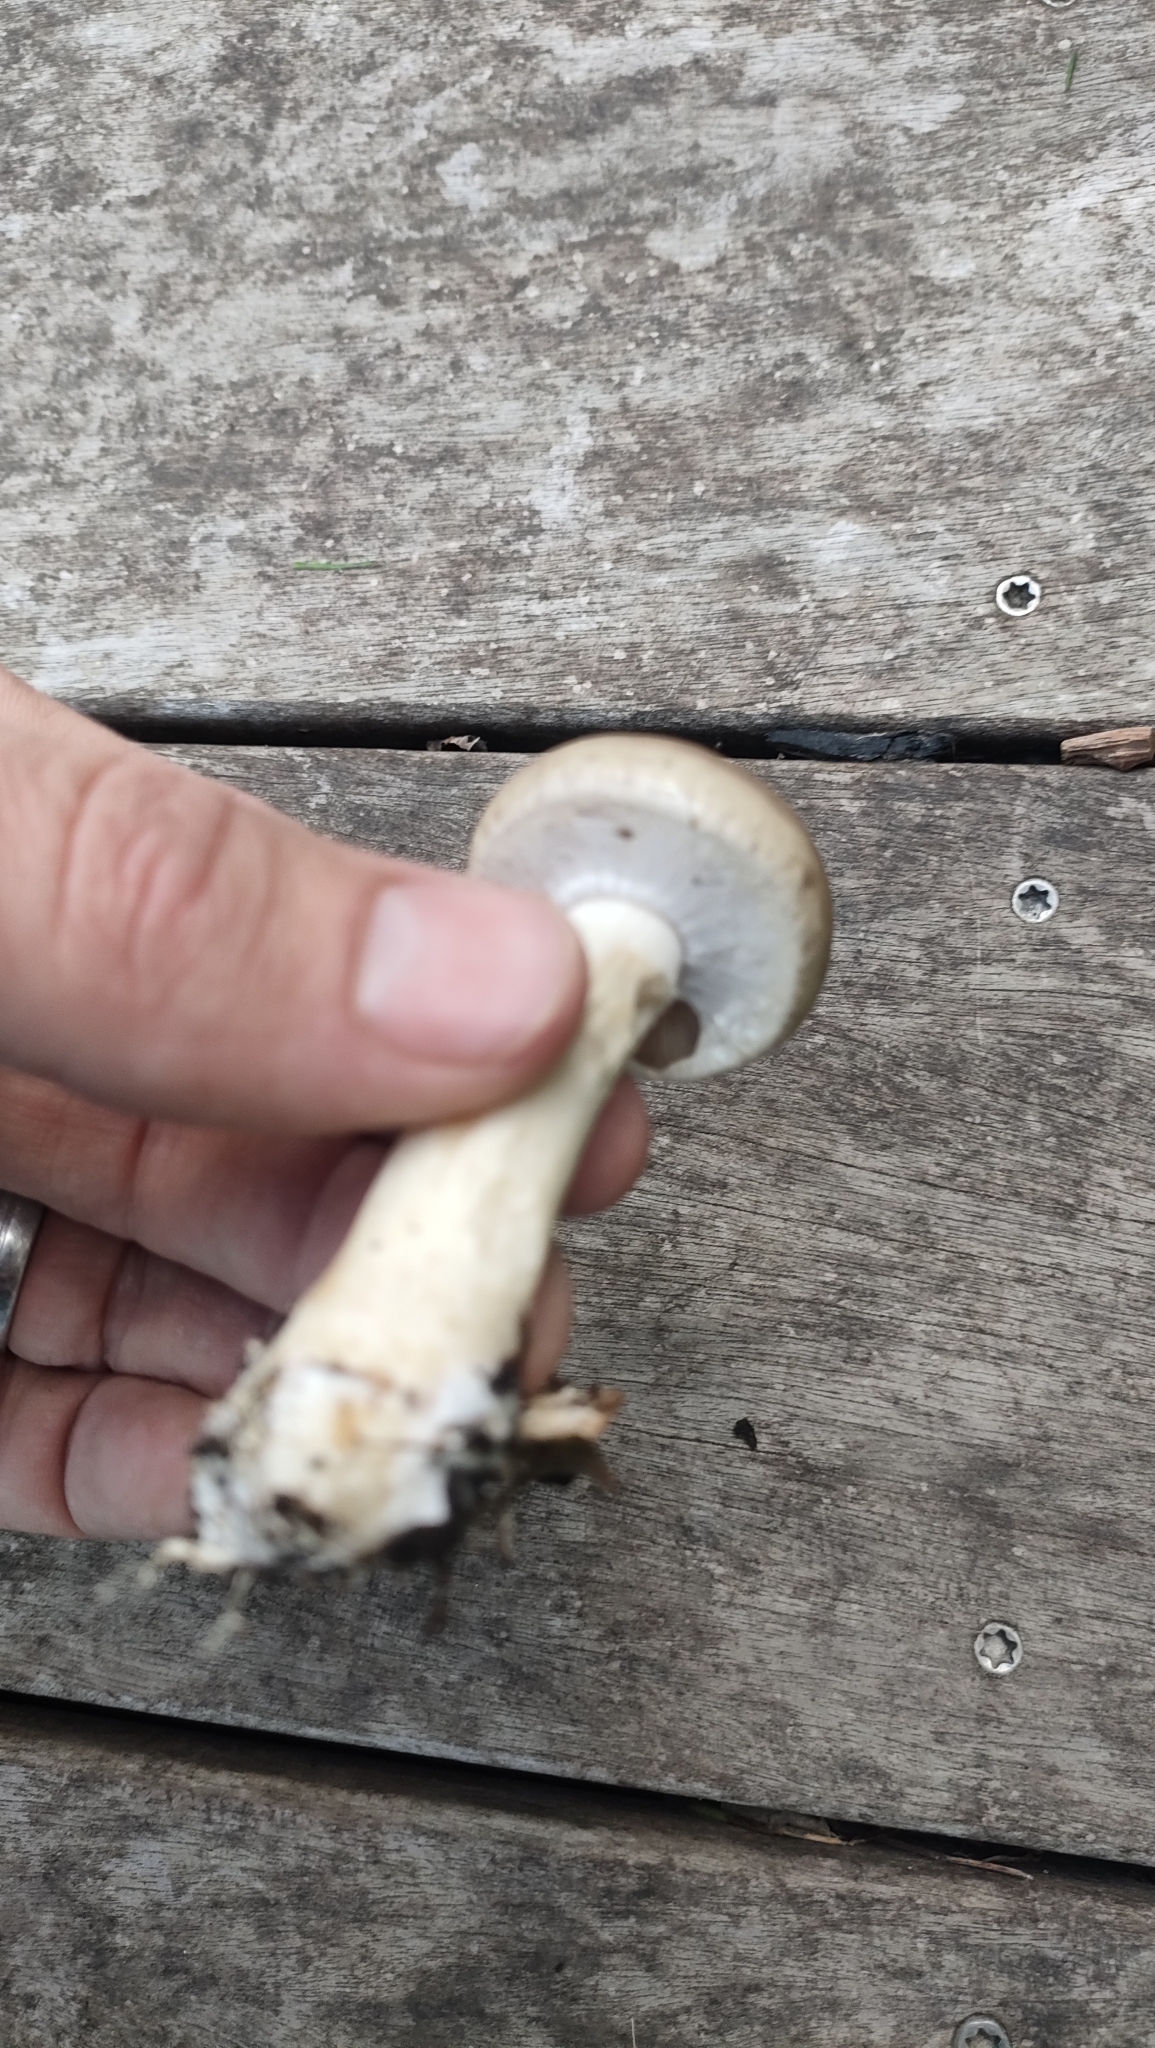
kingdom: Fungi
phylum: Basidiomycota
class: Agaricomycetes
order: Agaricales
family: Strophariaceae
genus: Agrocybe
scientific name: Agrocybe praecox
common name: Spring fieldcap
